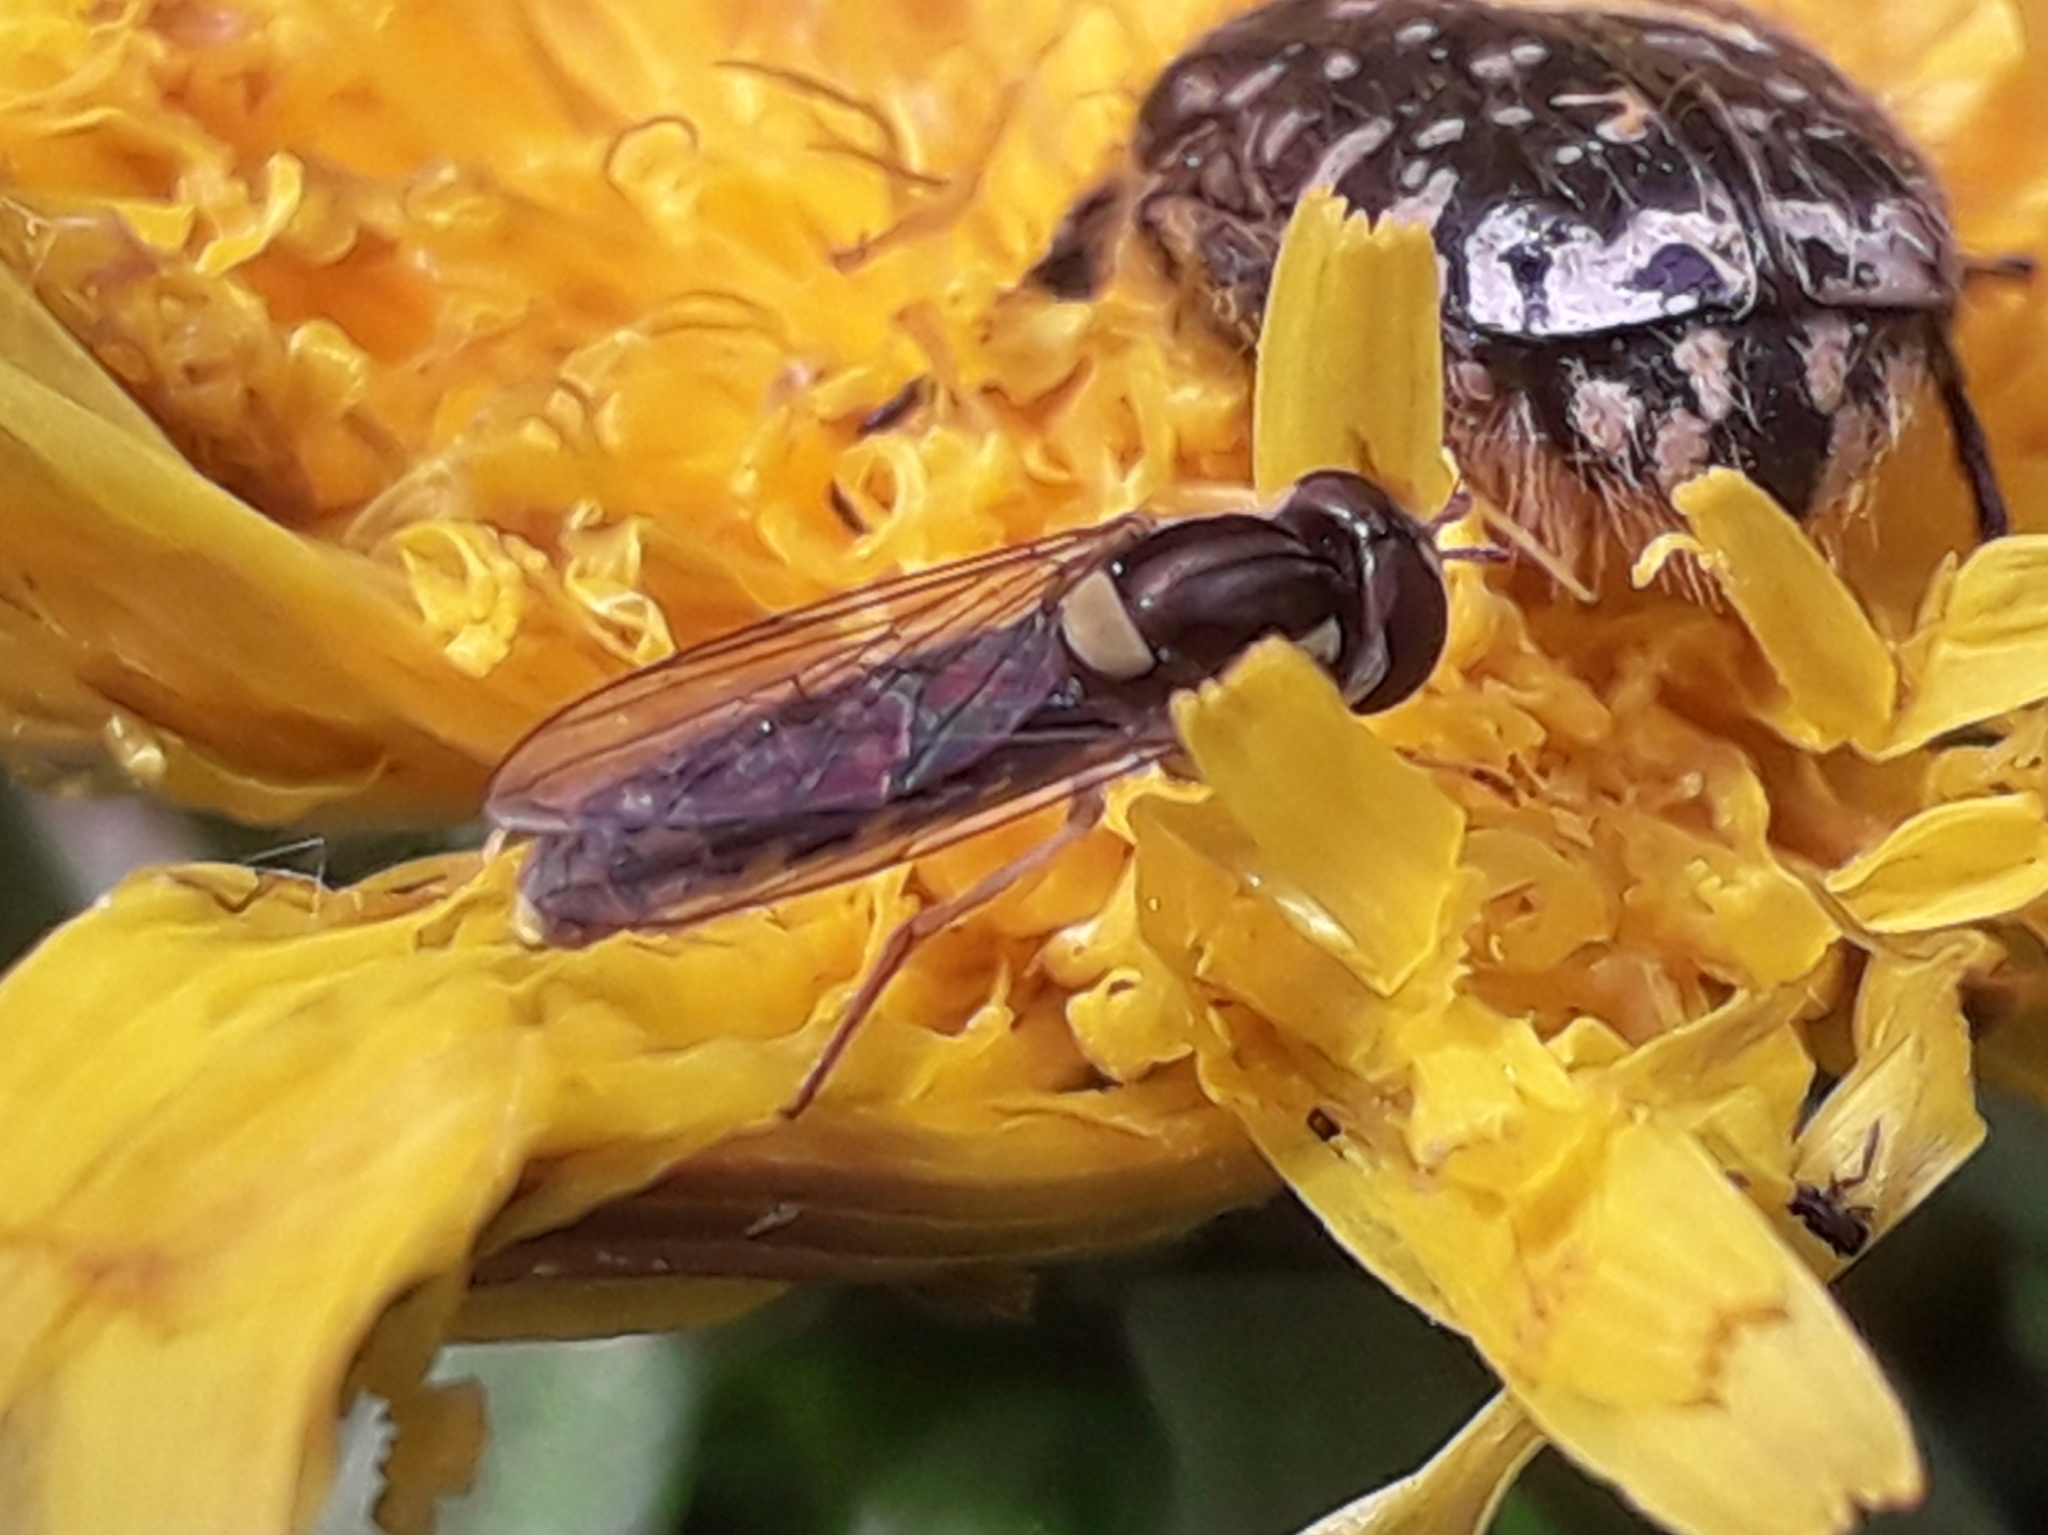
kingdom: Animalia
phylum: Arthropoda
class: Insecta
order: Diptera
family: Syrphidae
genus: Sphaerophoria
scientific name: Sphaerophoria
